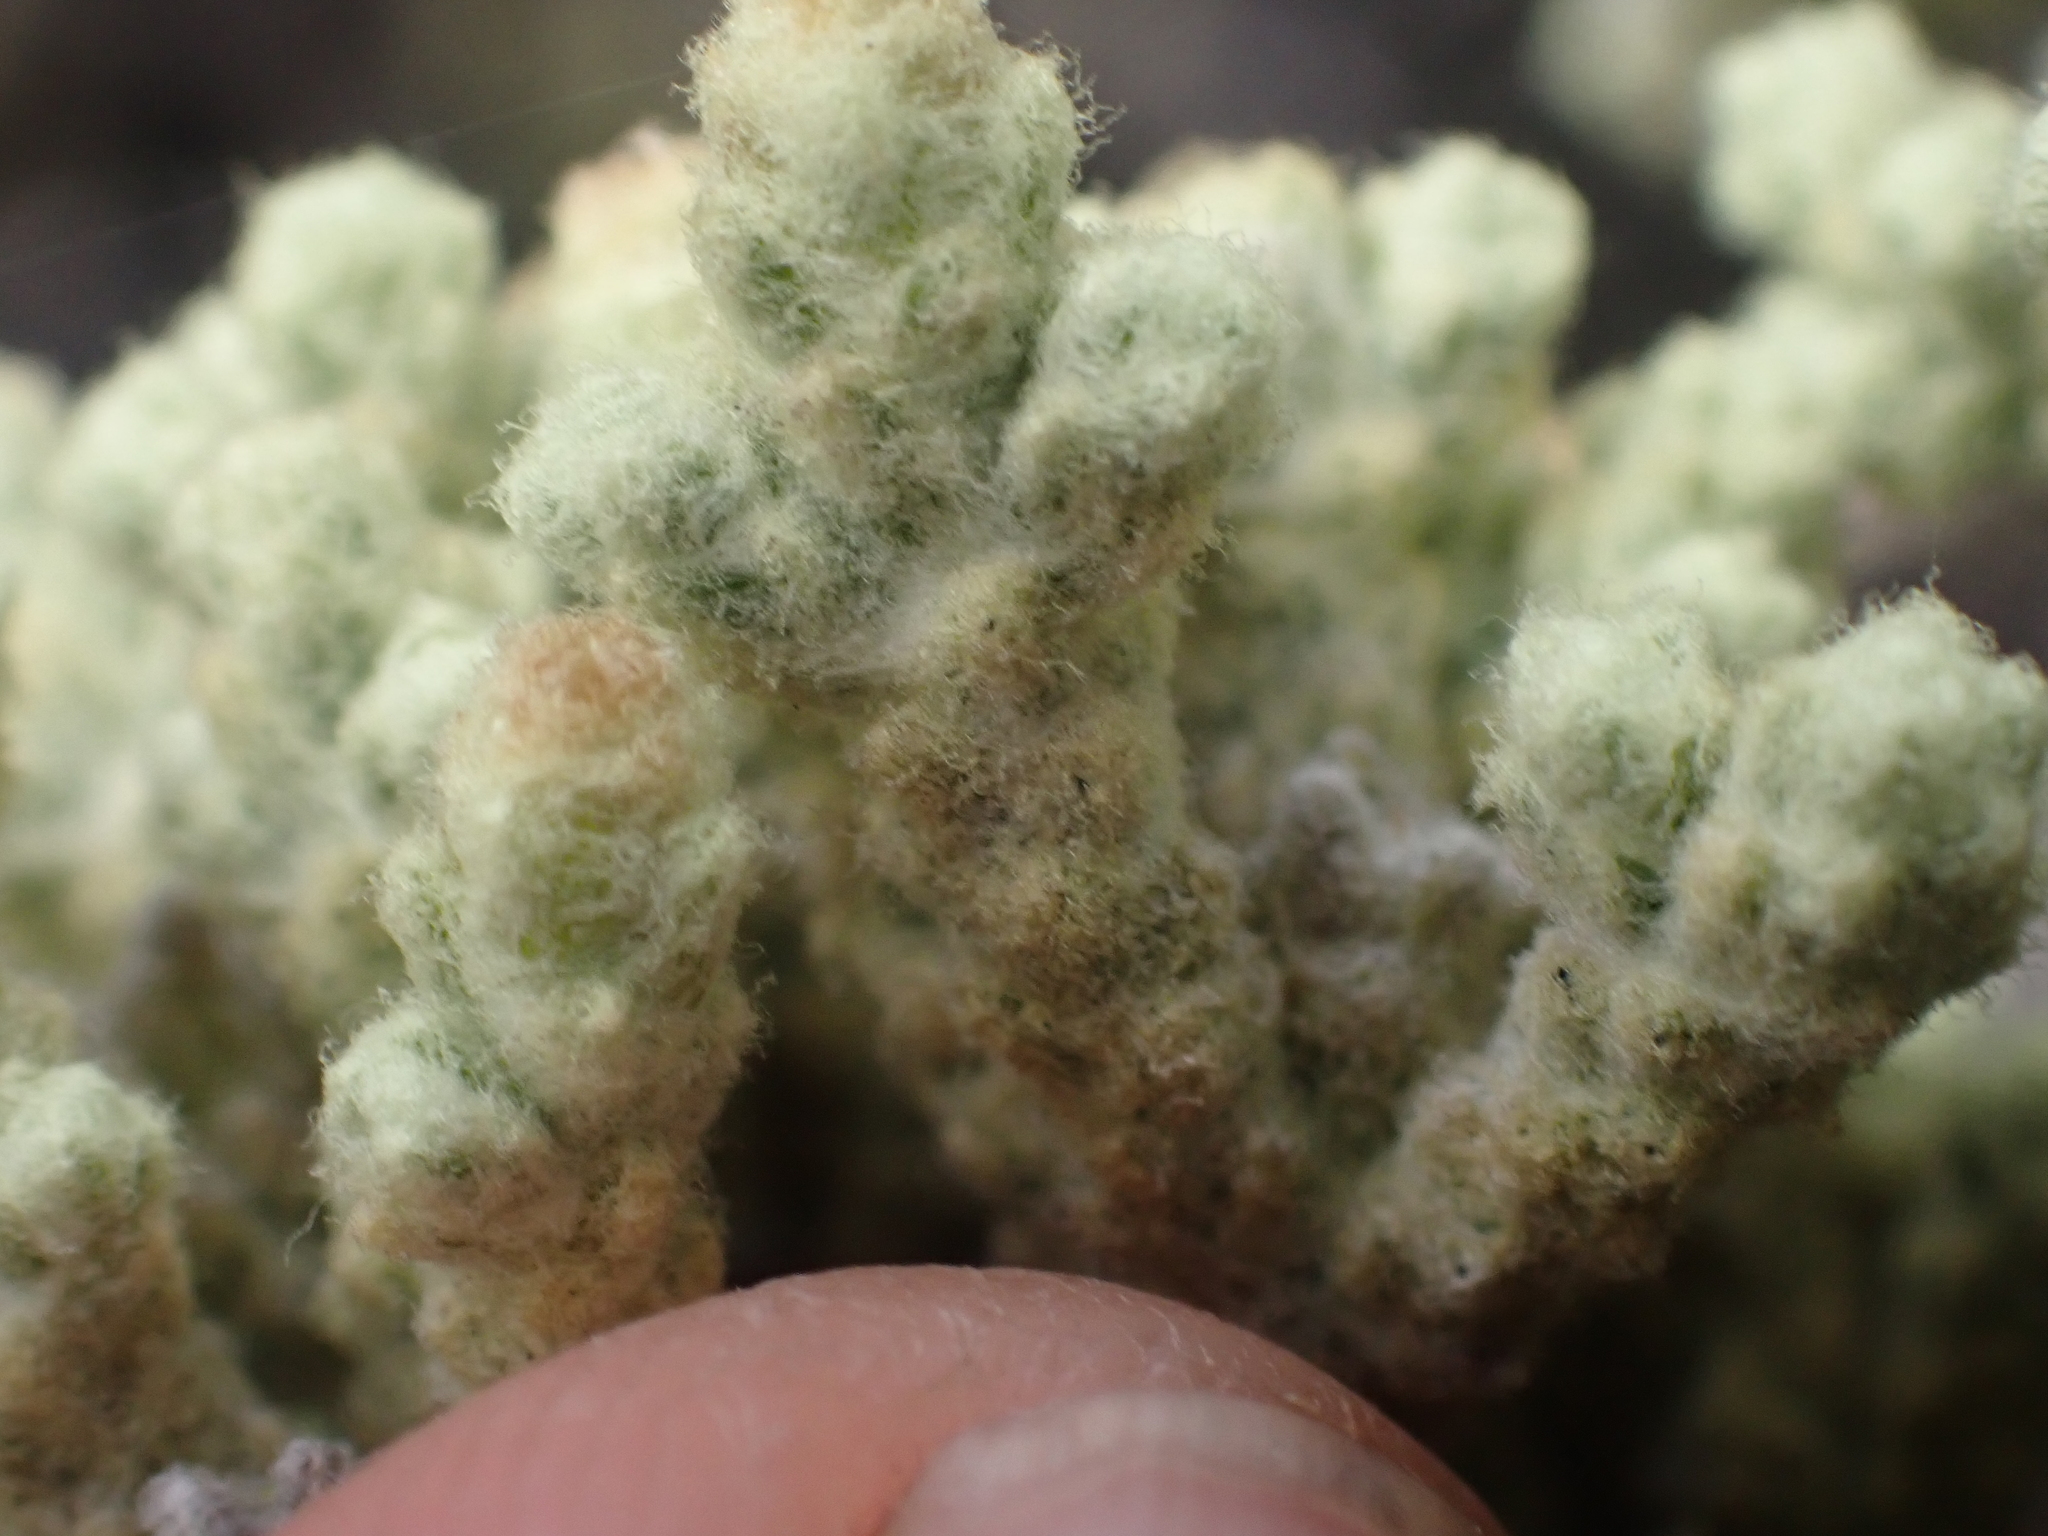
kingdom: Plantae
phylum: Tracheophyta
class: Magnoliopsida
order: Asterales
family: Asteraceae
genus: Ozothamnus
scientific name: Ozothamnus plumeus
